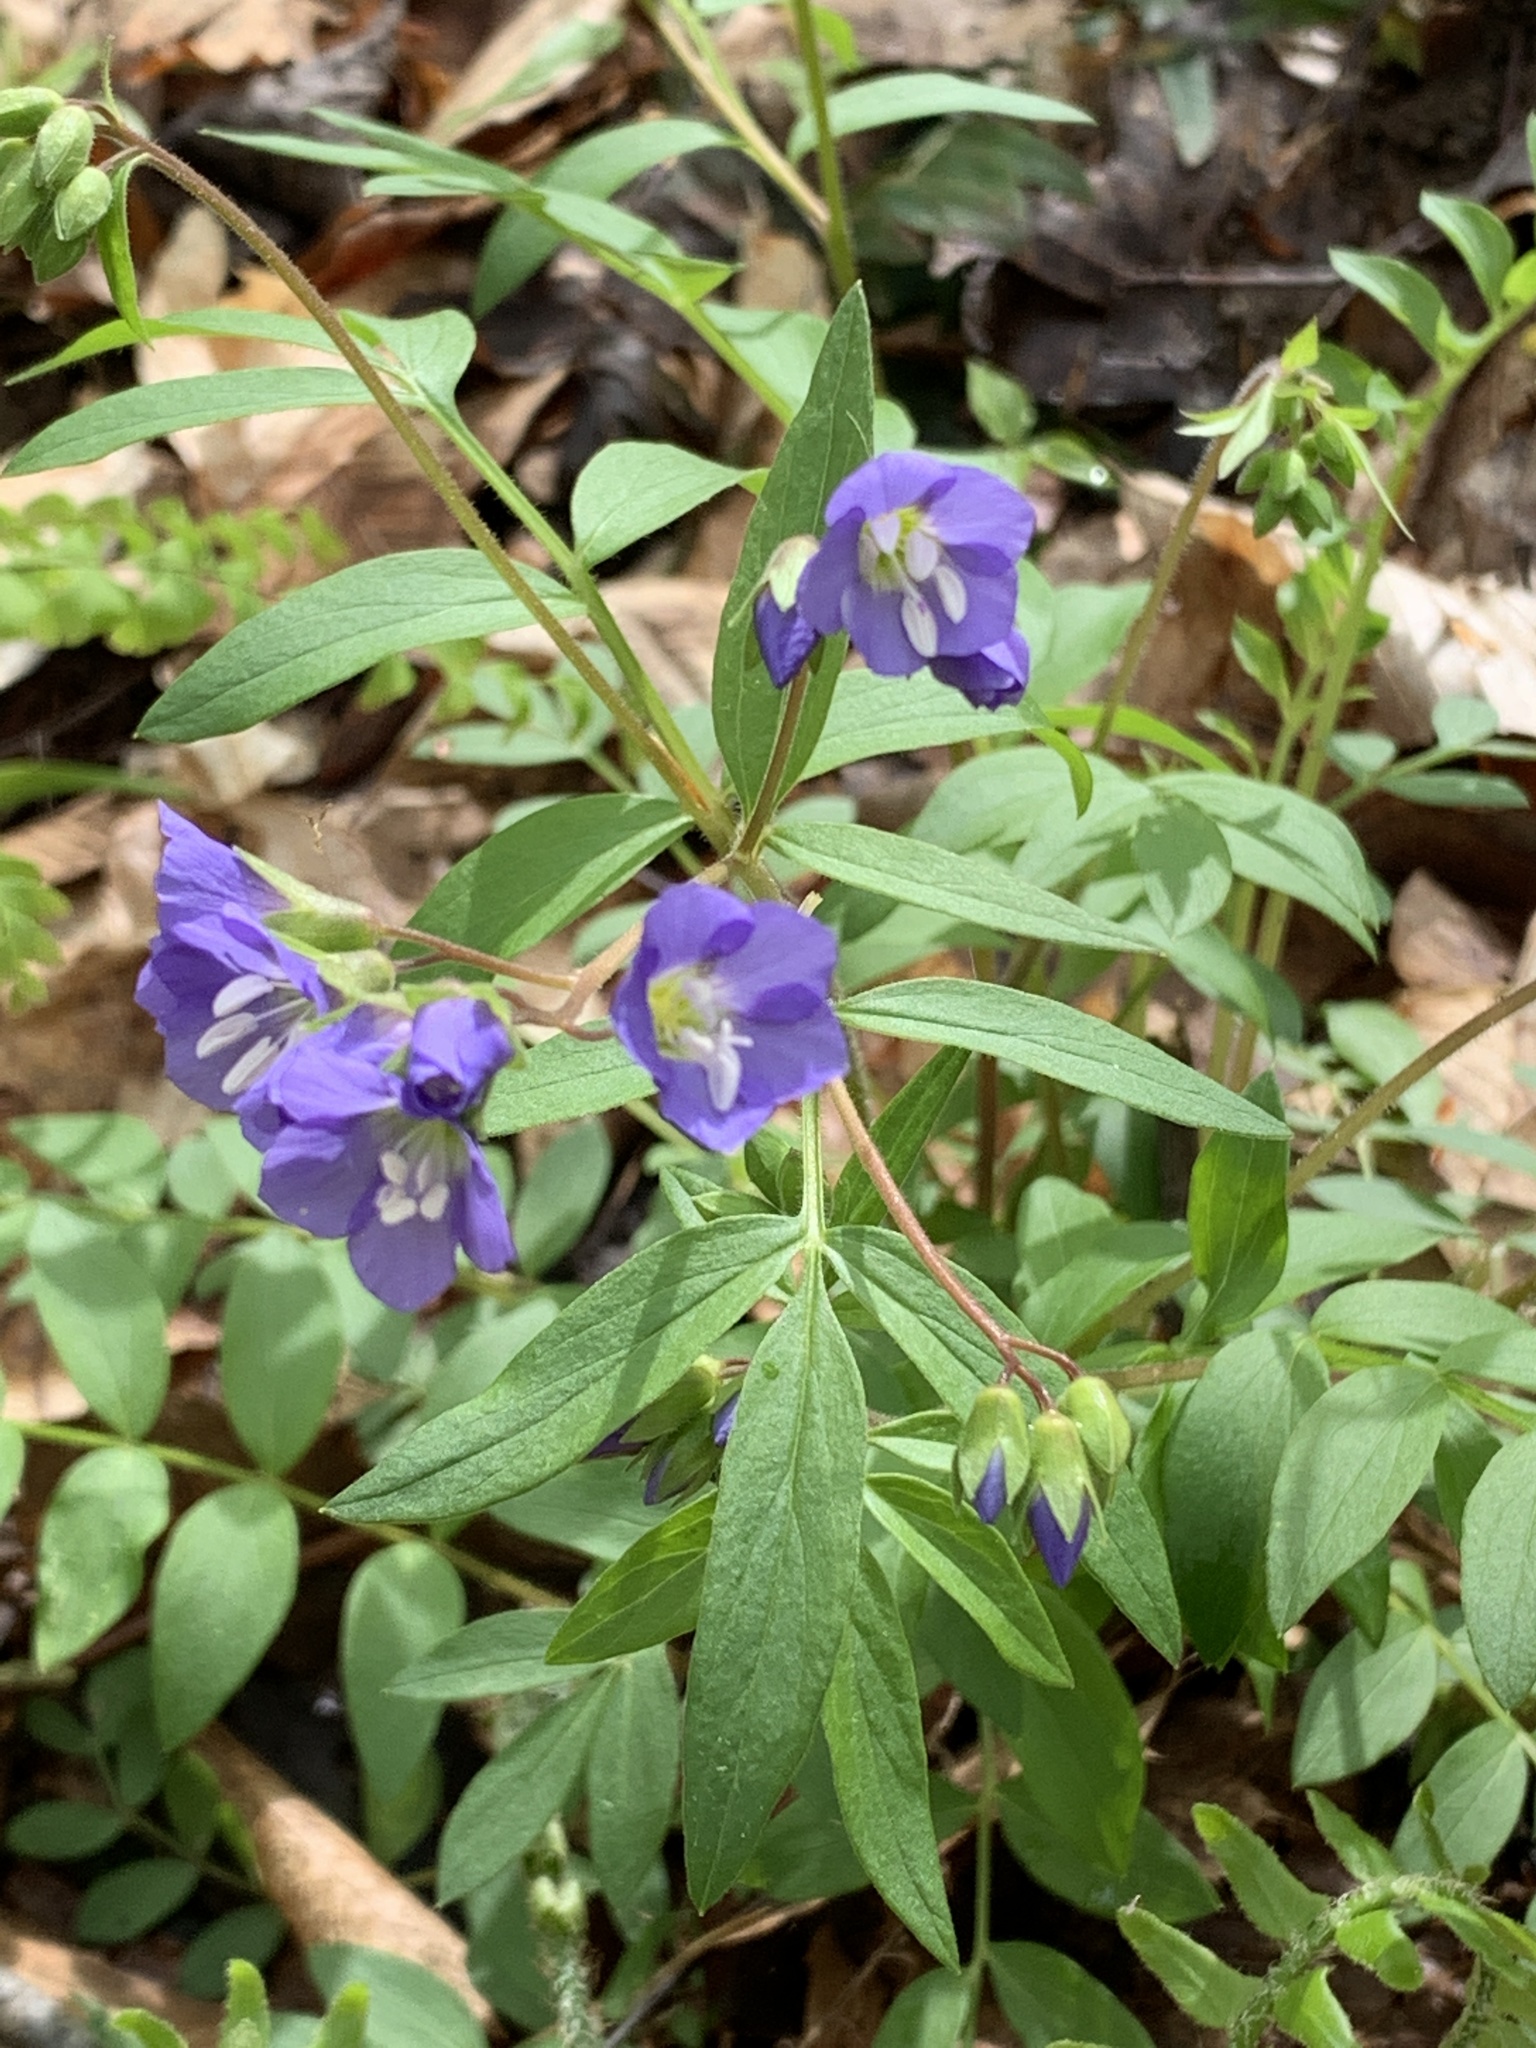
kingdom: Plantae
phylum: Tracheophyta
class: Magnoliopsida
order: Ericales
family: Polemoniaceae
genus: Polemonium
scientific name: Polemonium reptans
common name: Creeping jacob's-ladder
